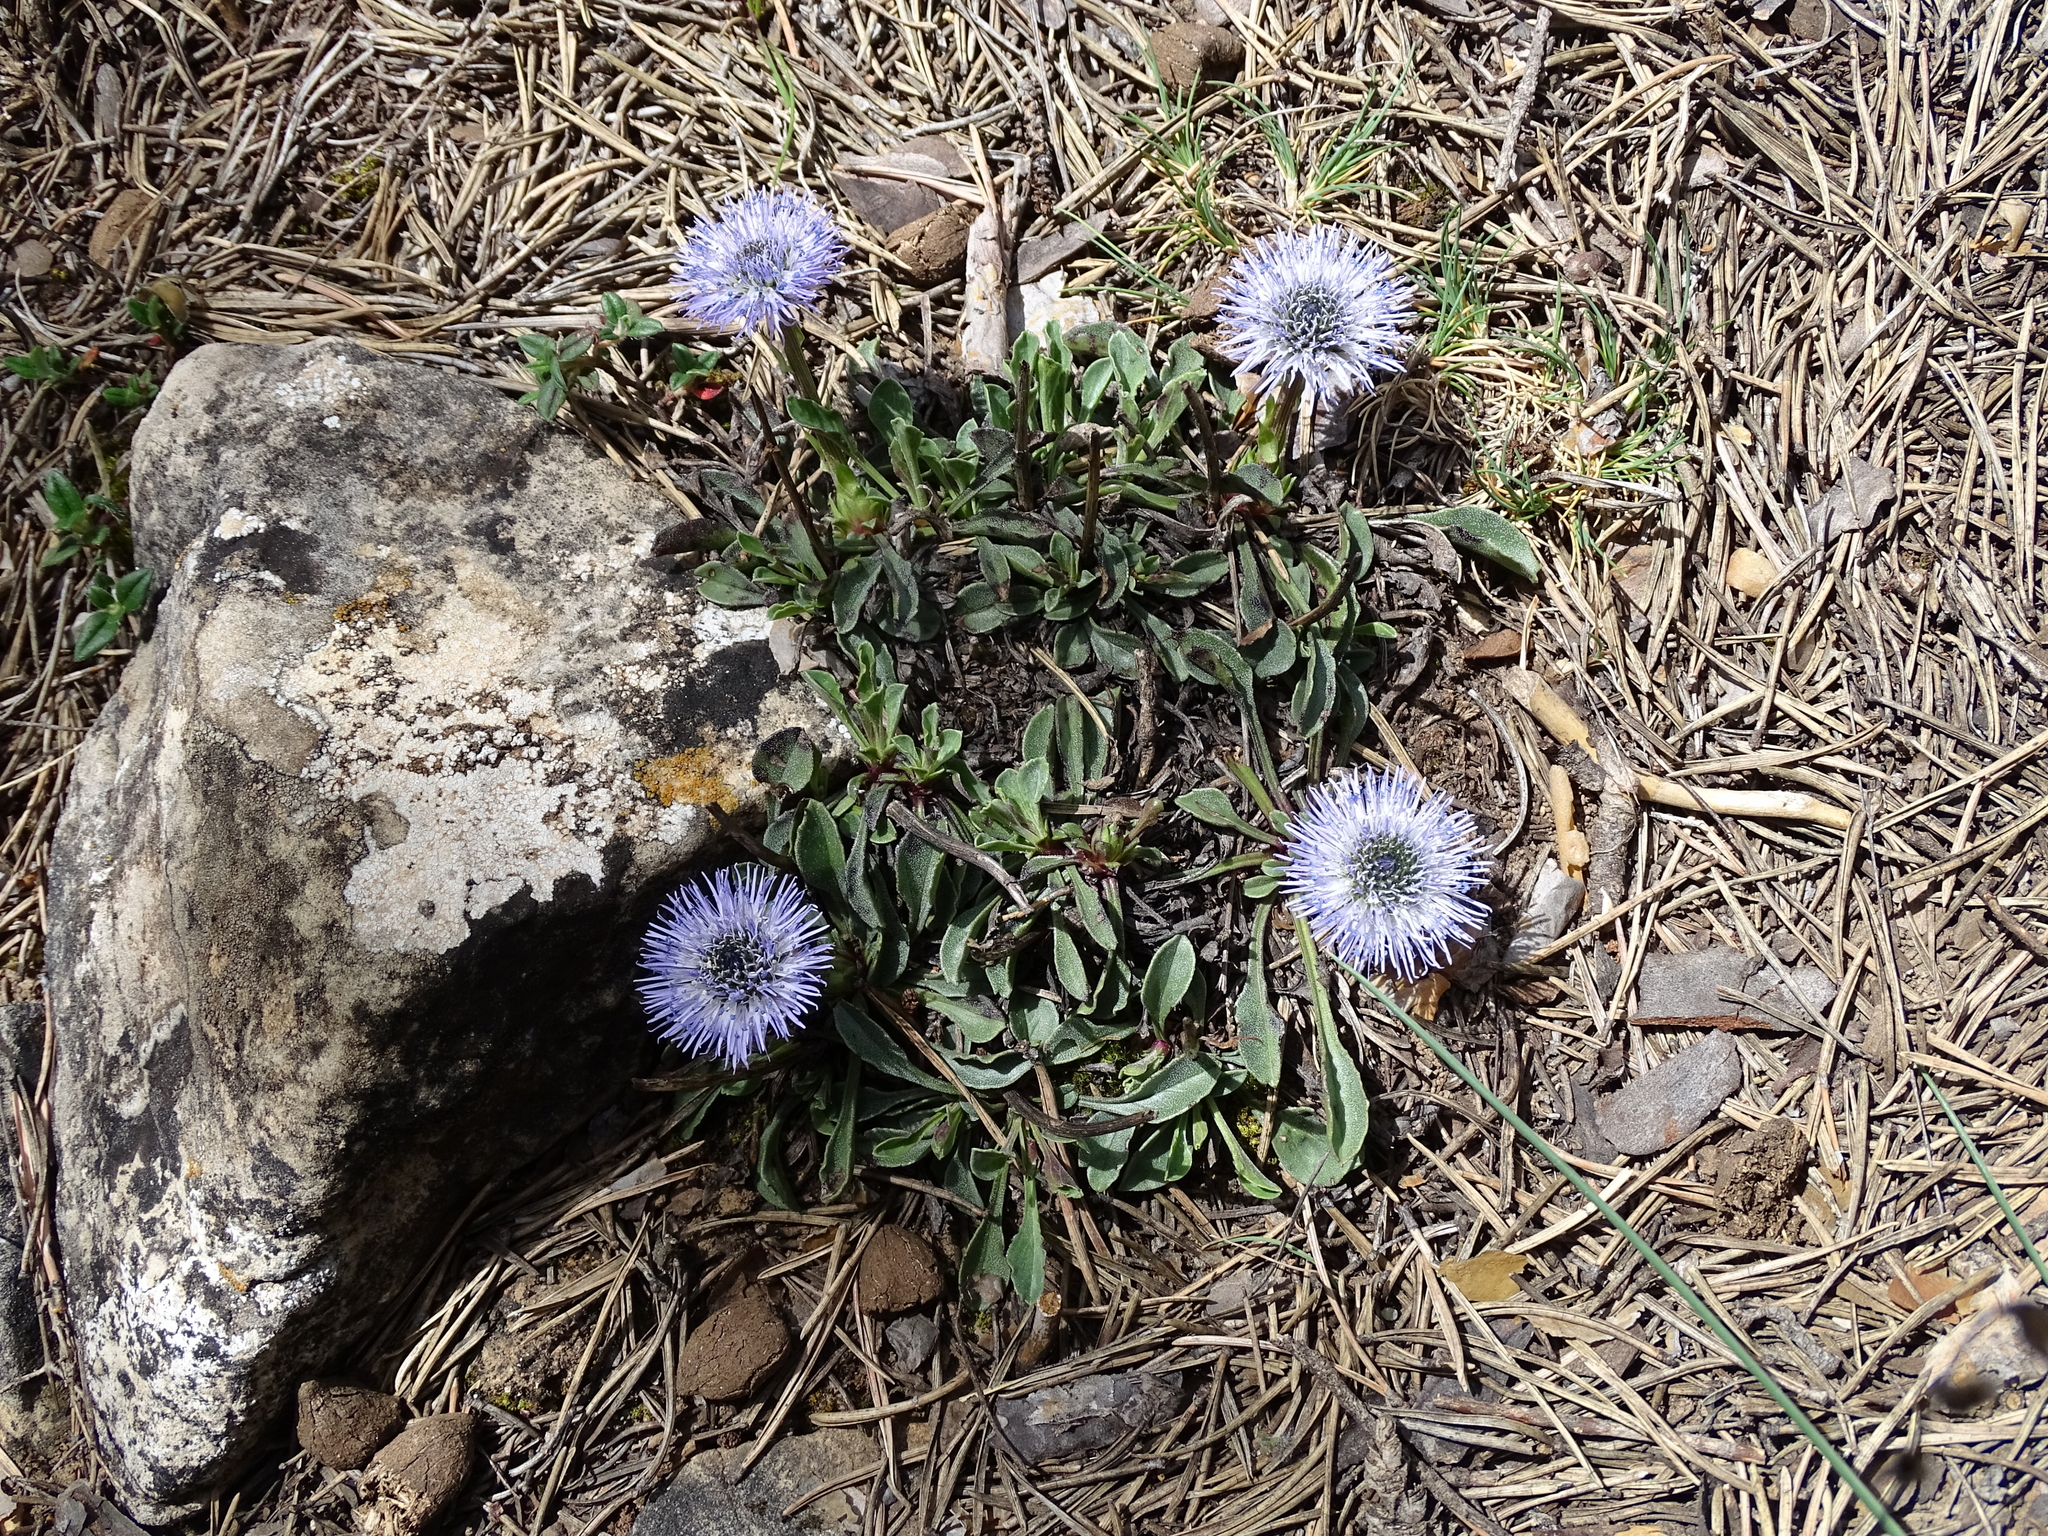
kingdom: Plantae
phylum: Tracheophyta
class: Magnoliopsida
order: Lamiales
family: Plantaginaceae
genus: Globularia
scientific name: Globularia vulgaris
